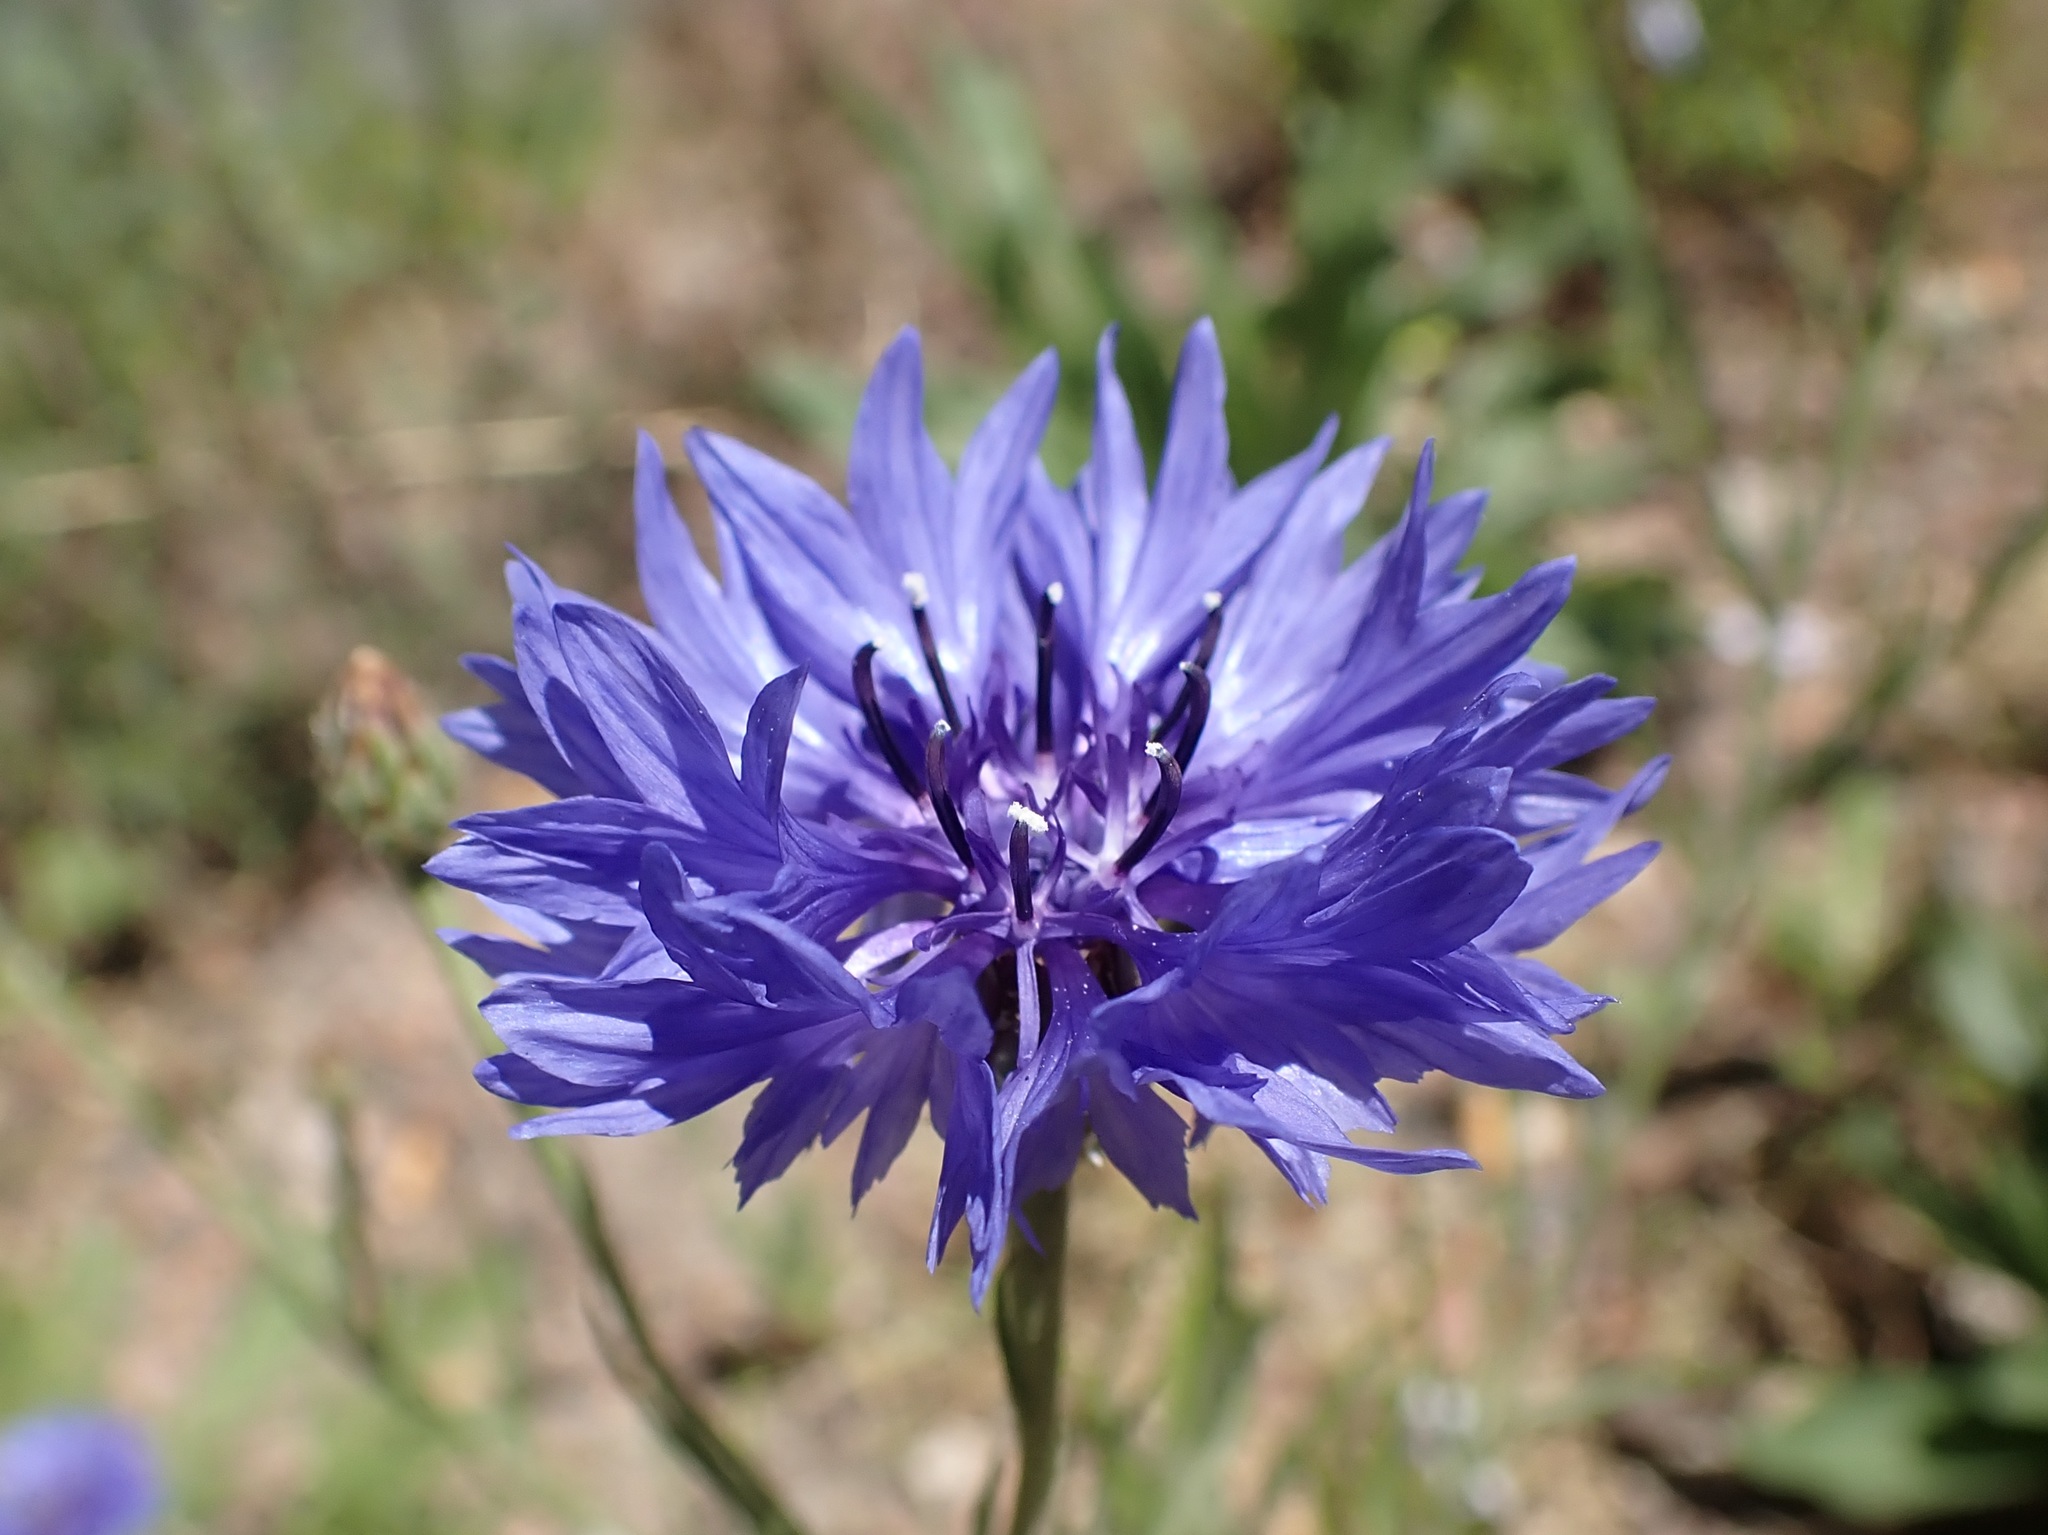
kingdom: Plantae
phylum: Tracheophyta
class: Magnoliopsida
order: Asterales
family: Asteraceae
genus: Centaurea
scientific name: Centaurea cyanus
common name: Cornflower
